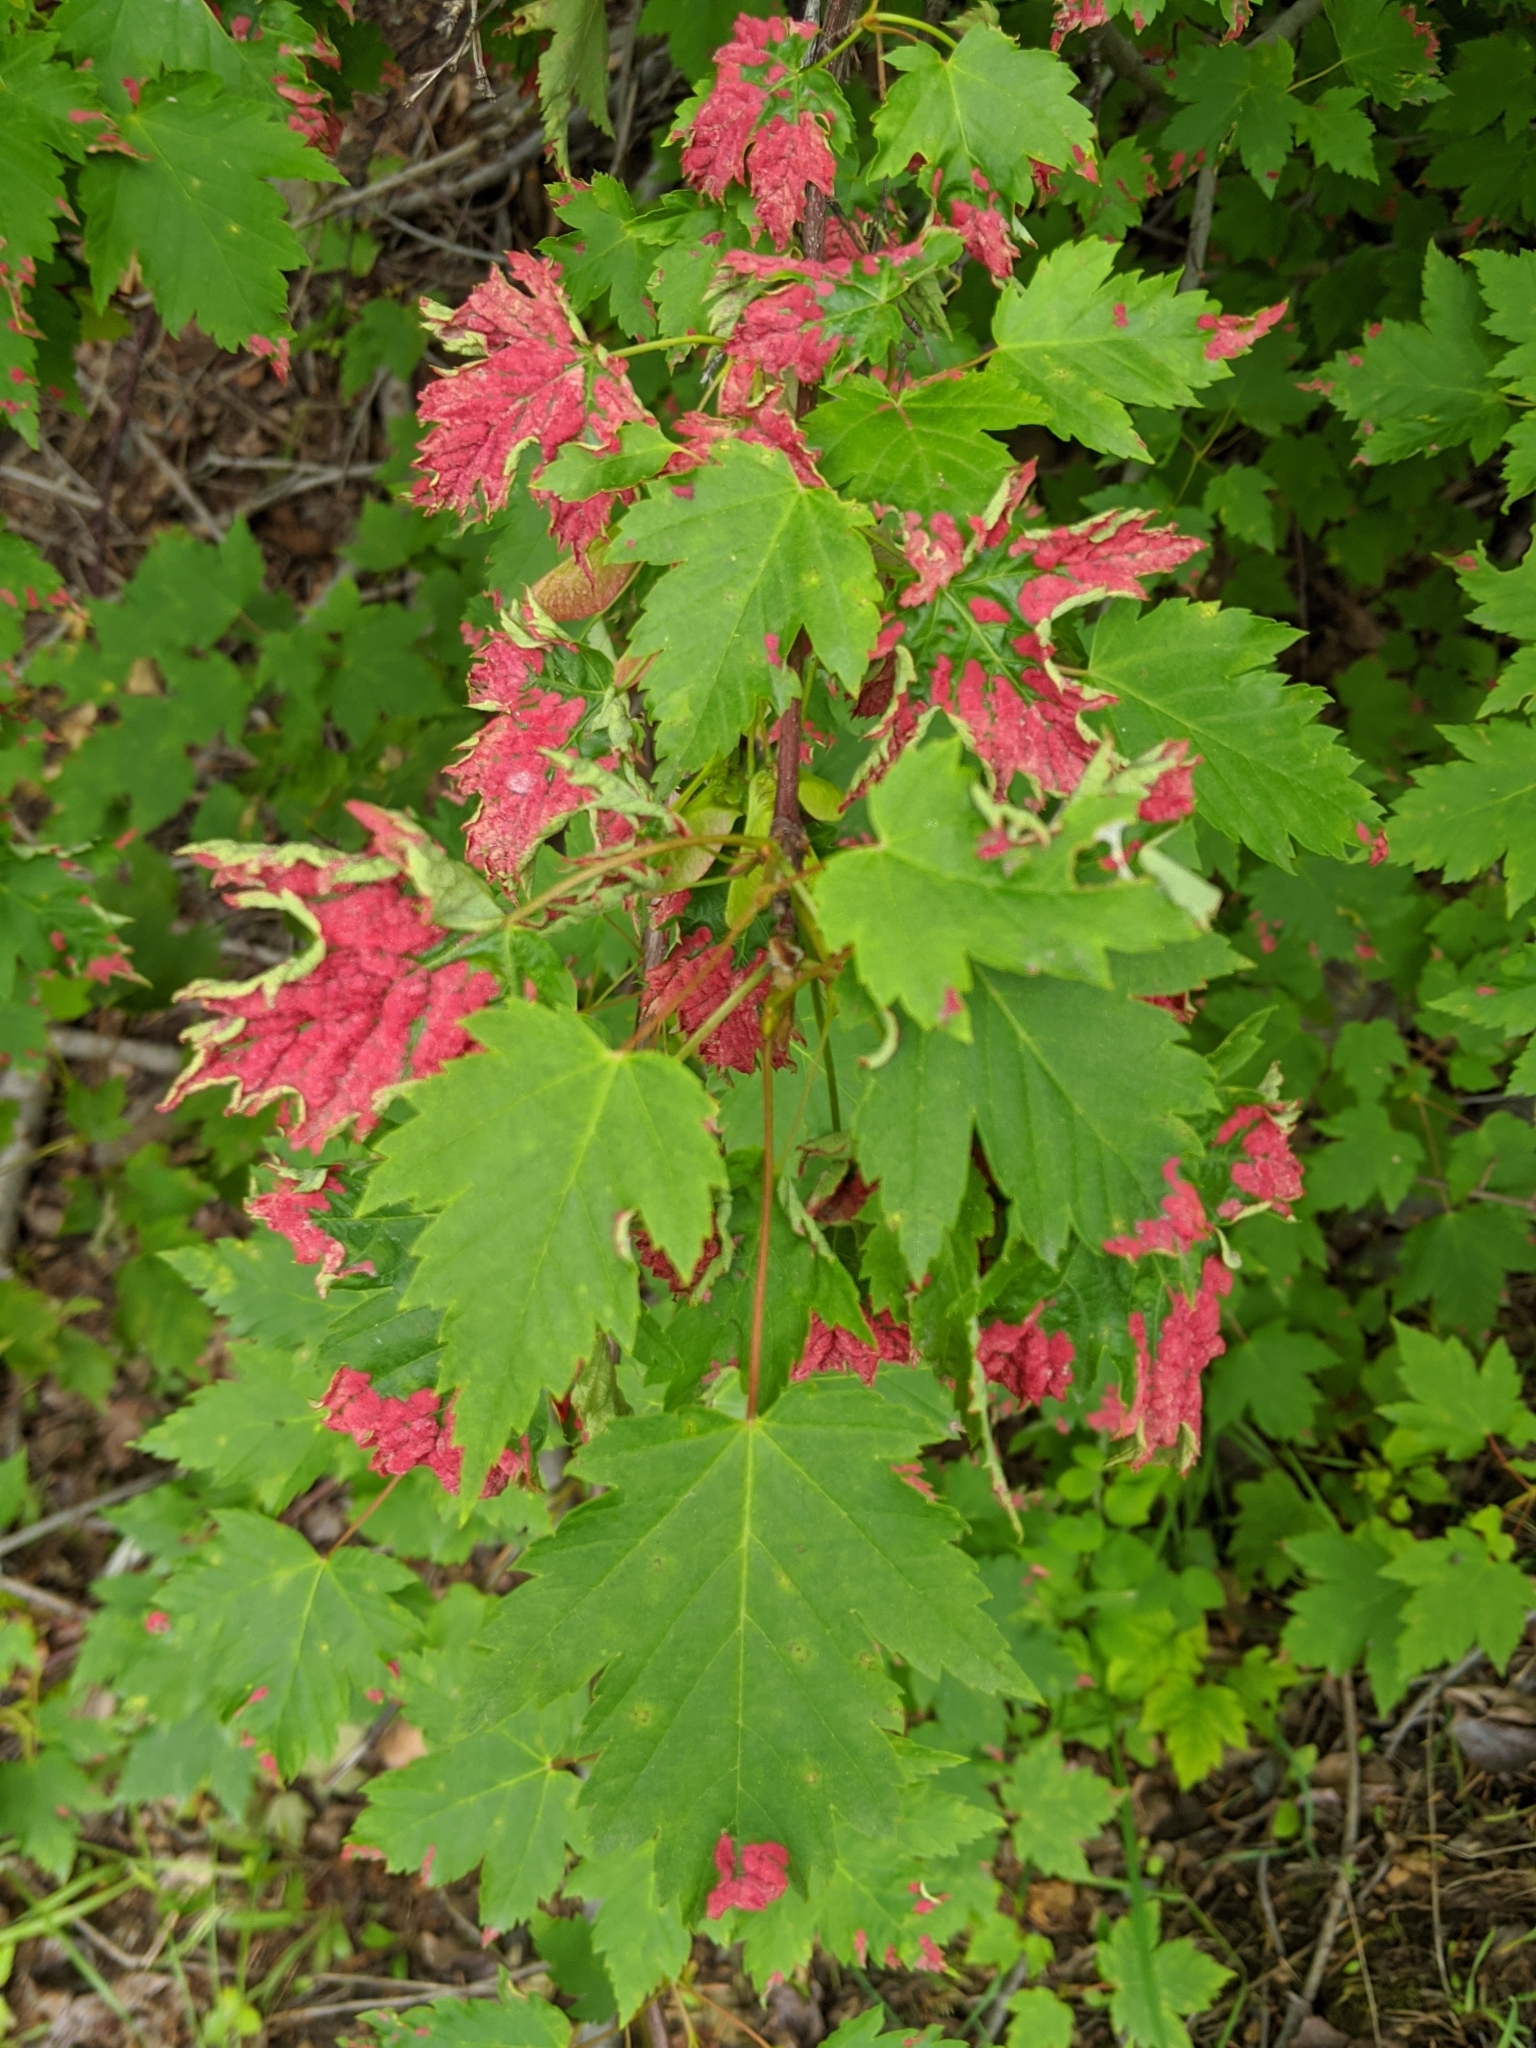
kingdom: Animalia
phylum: Arthropoda
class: Arachnida
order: Trombidiformes
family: Eriophyidae
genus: Aceria
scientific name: Aceria
